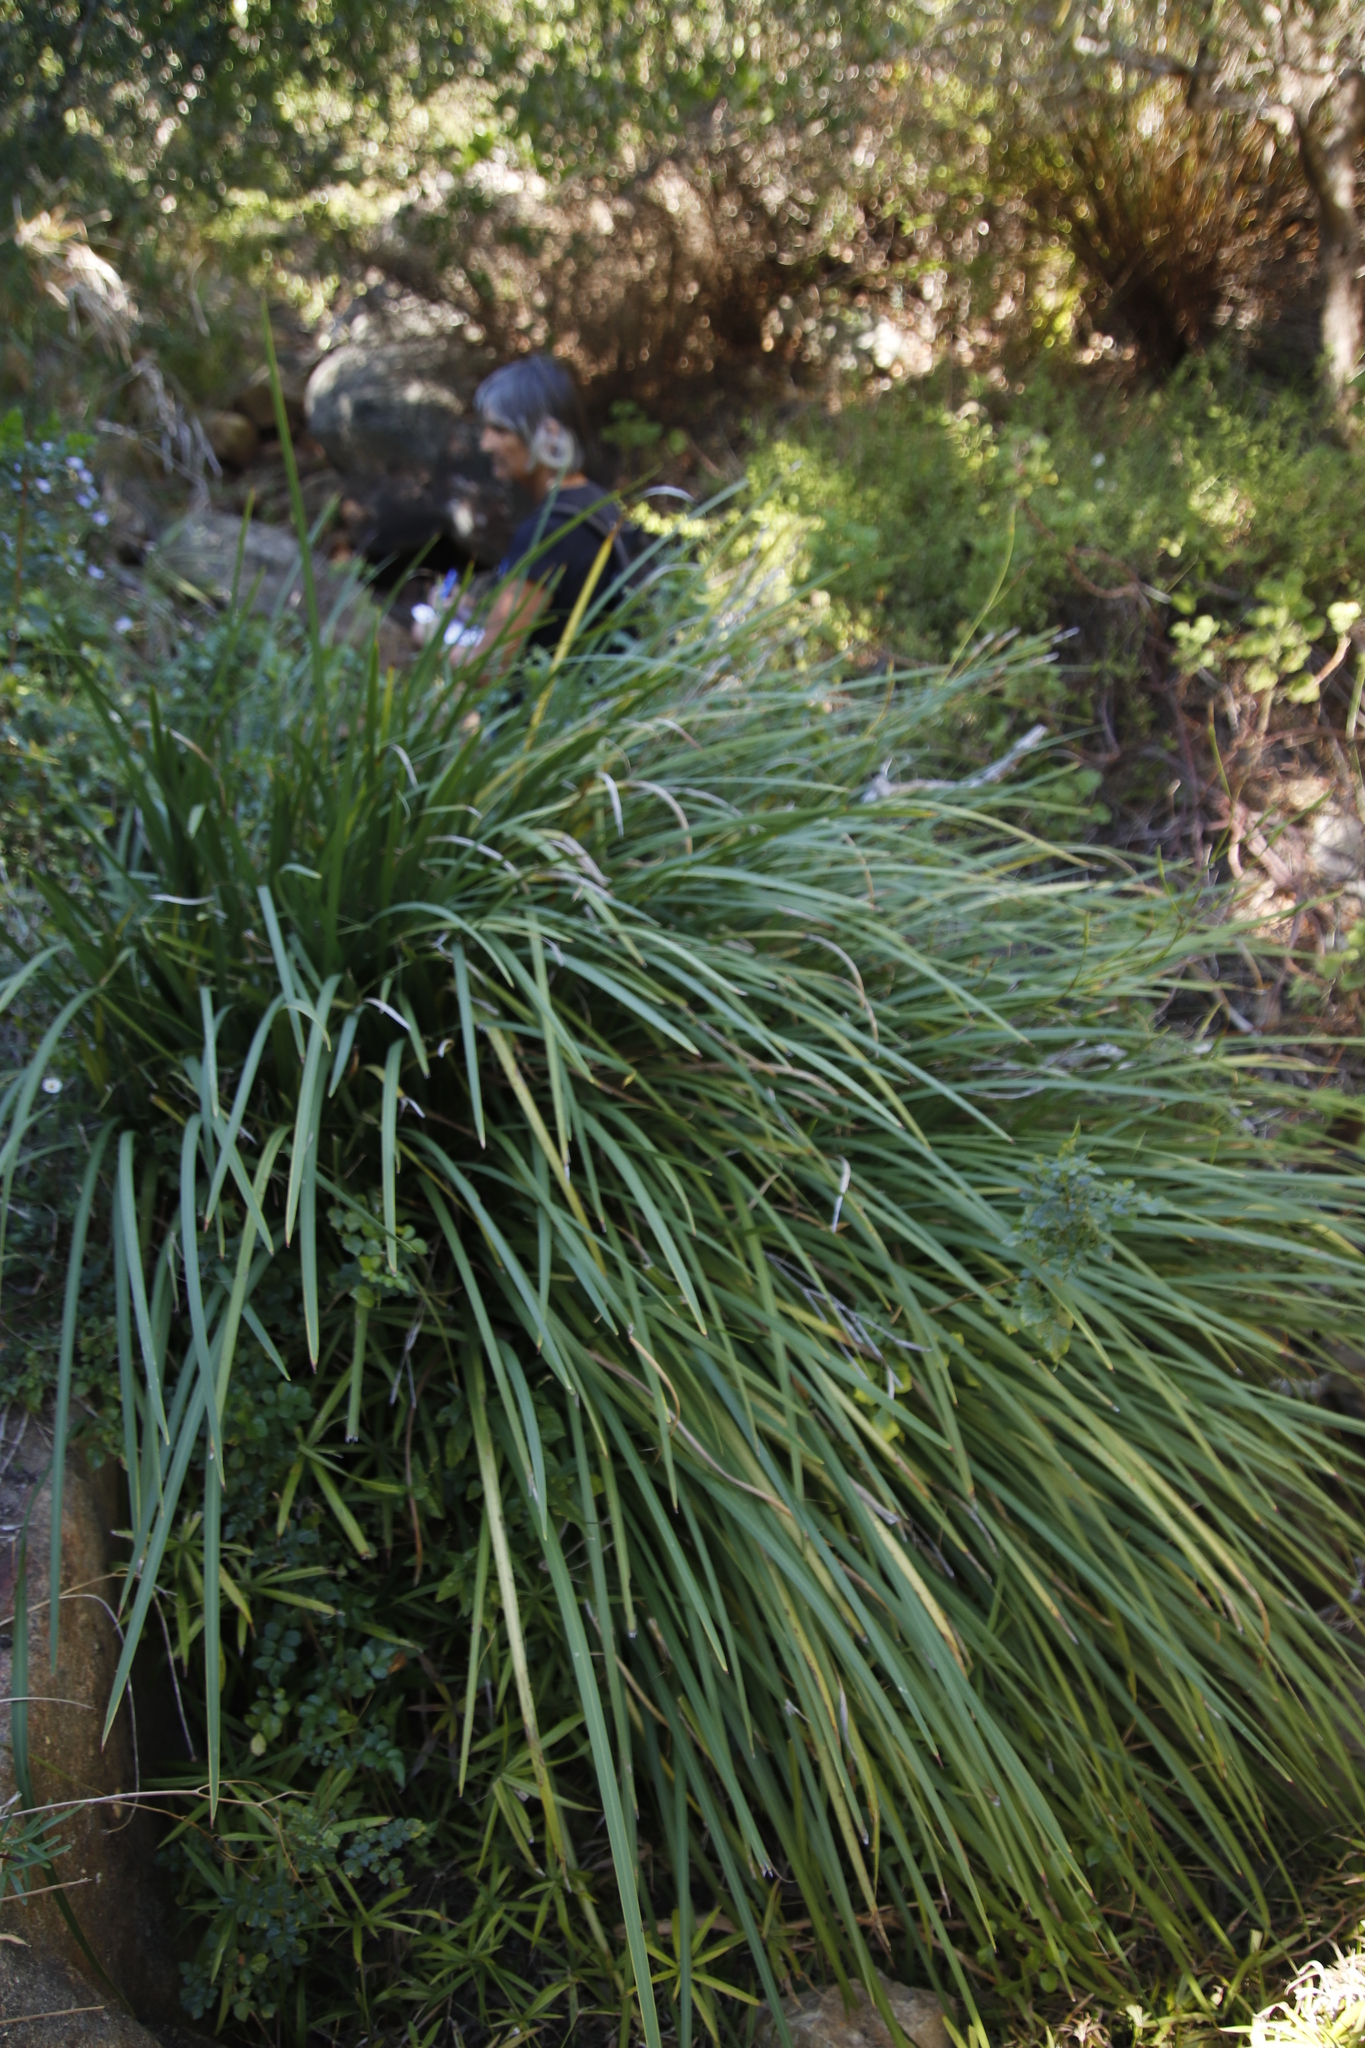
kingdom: Plantae
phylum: Tracheophyta
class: Liliopsida
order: Asparagales
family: Iridaceae
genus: Dietes
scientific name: Dietes bicolor
